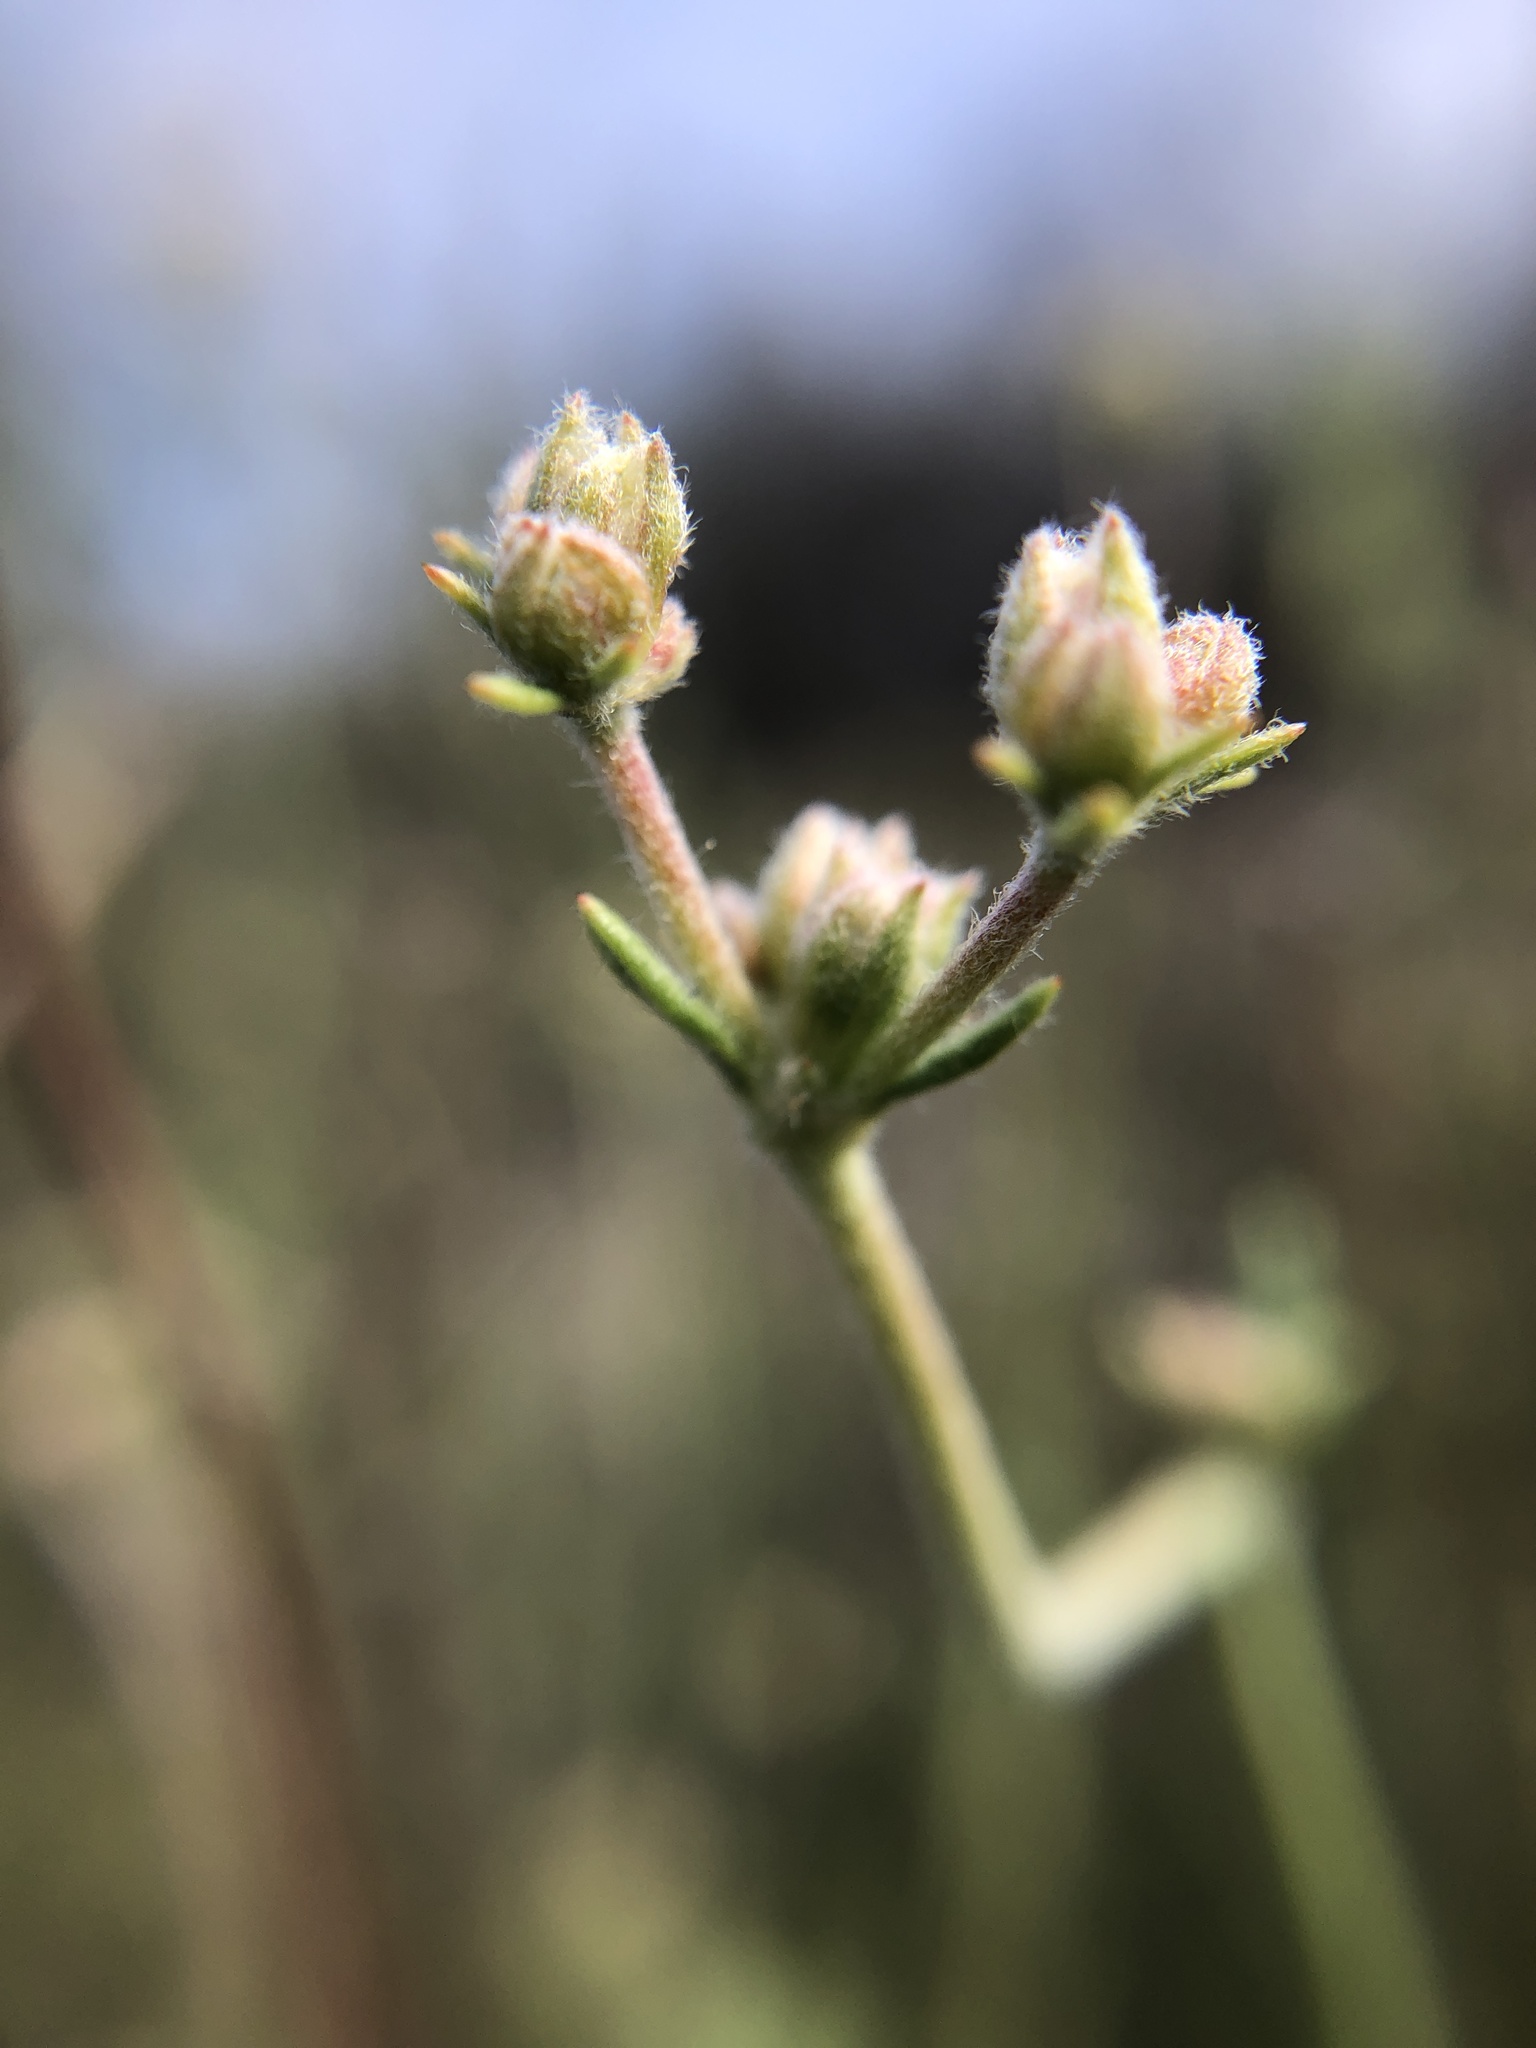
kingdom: Plantae
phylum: Tracheophyta
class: Magnoliopsida
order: Caryophyllales
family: Polygonaceae
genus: Eriogonum
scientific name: Eriogonum fasciculatum
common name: California wild buckwheat
